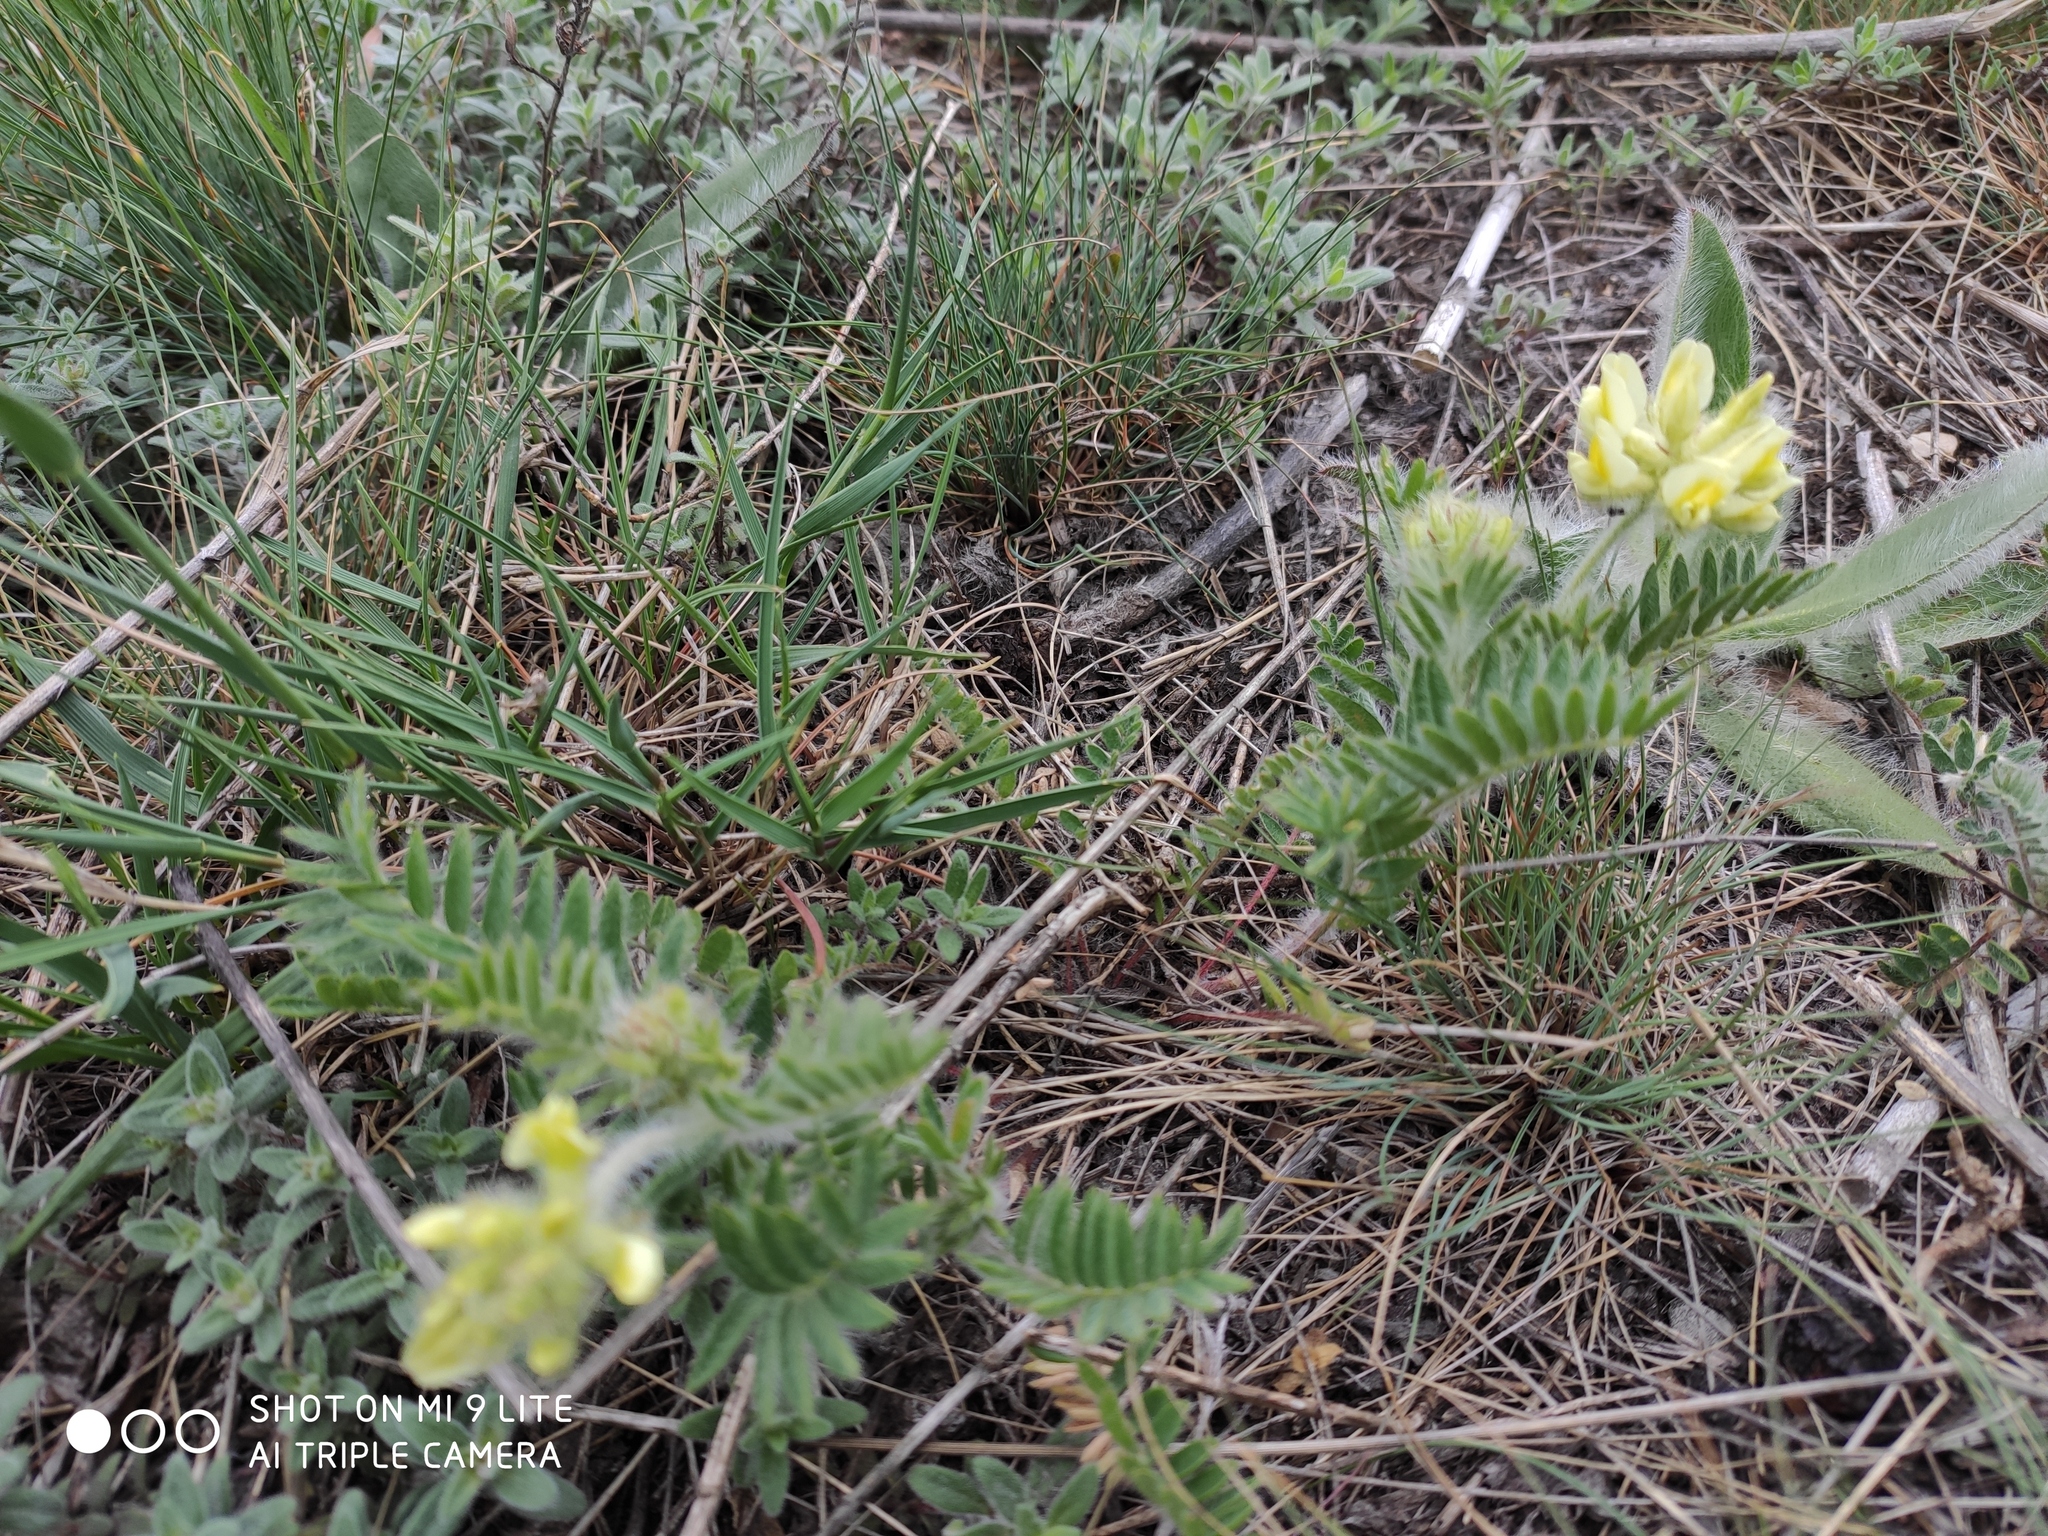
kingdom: Plantae
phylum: Tracheophyta
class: Magnoliopsida
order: Fabales
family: Fabaceae
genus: Oxytropis
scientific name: Oxytropis pilosa
